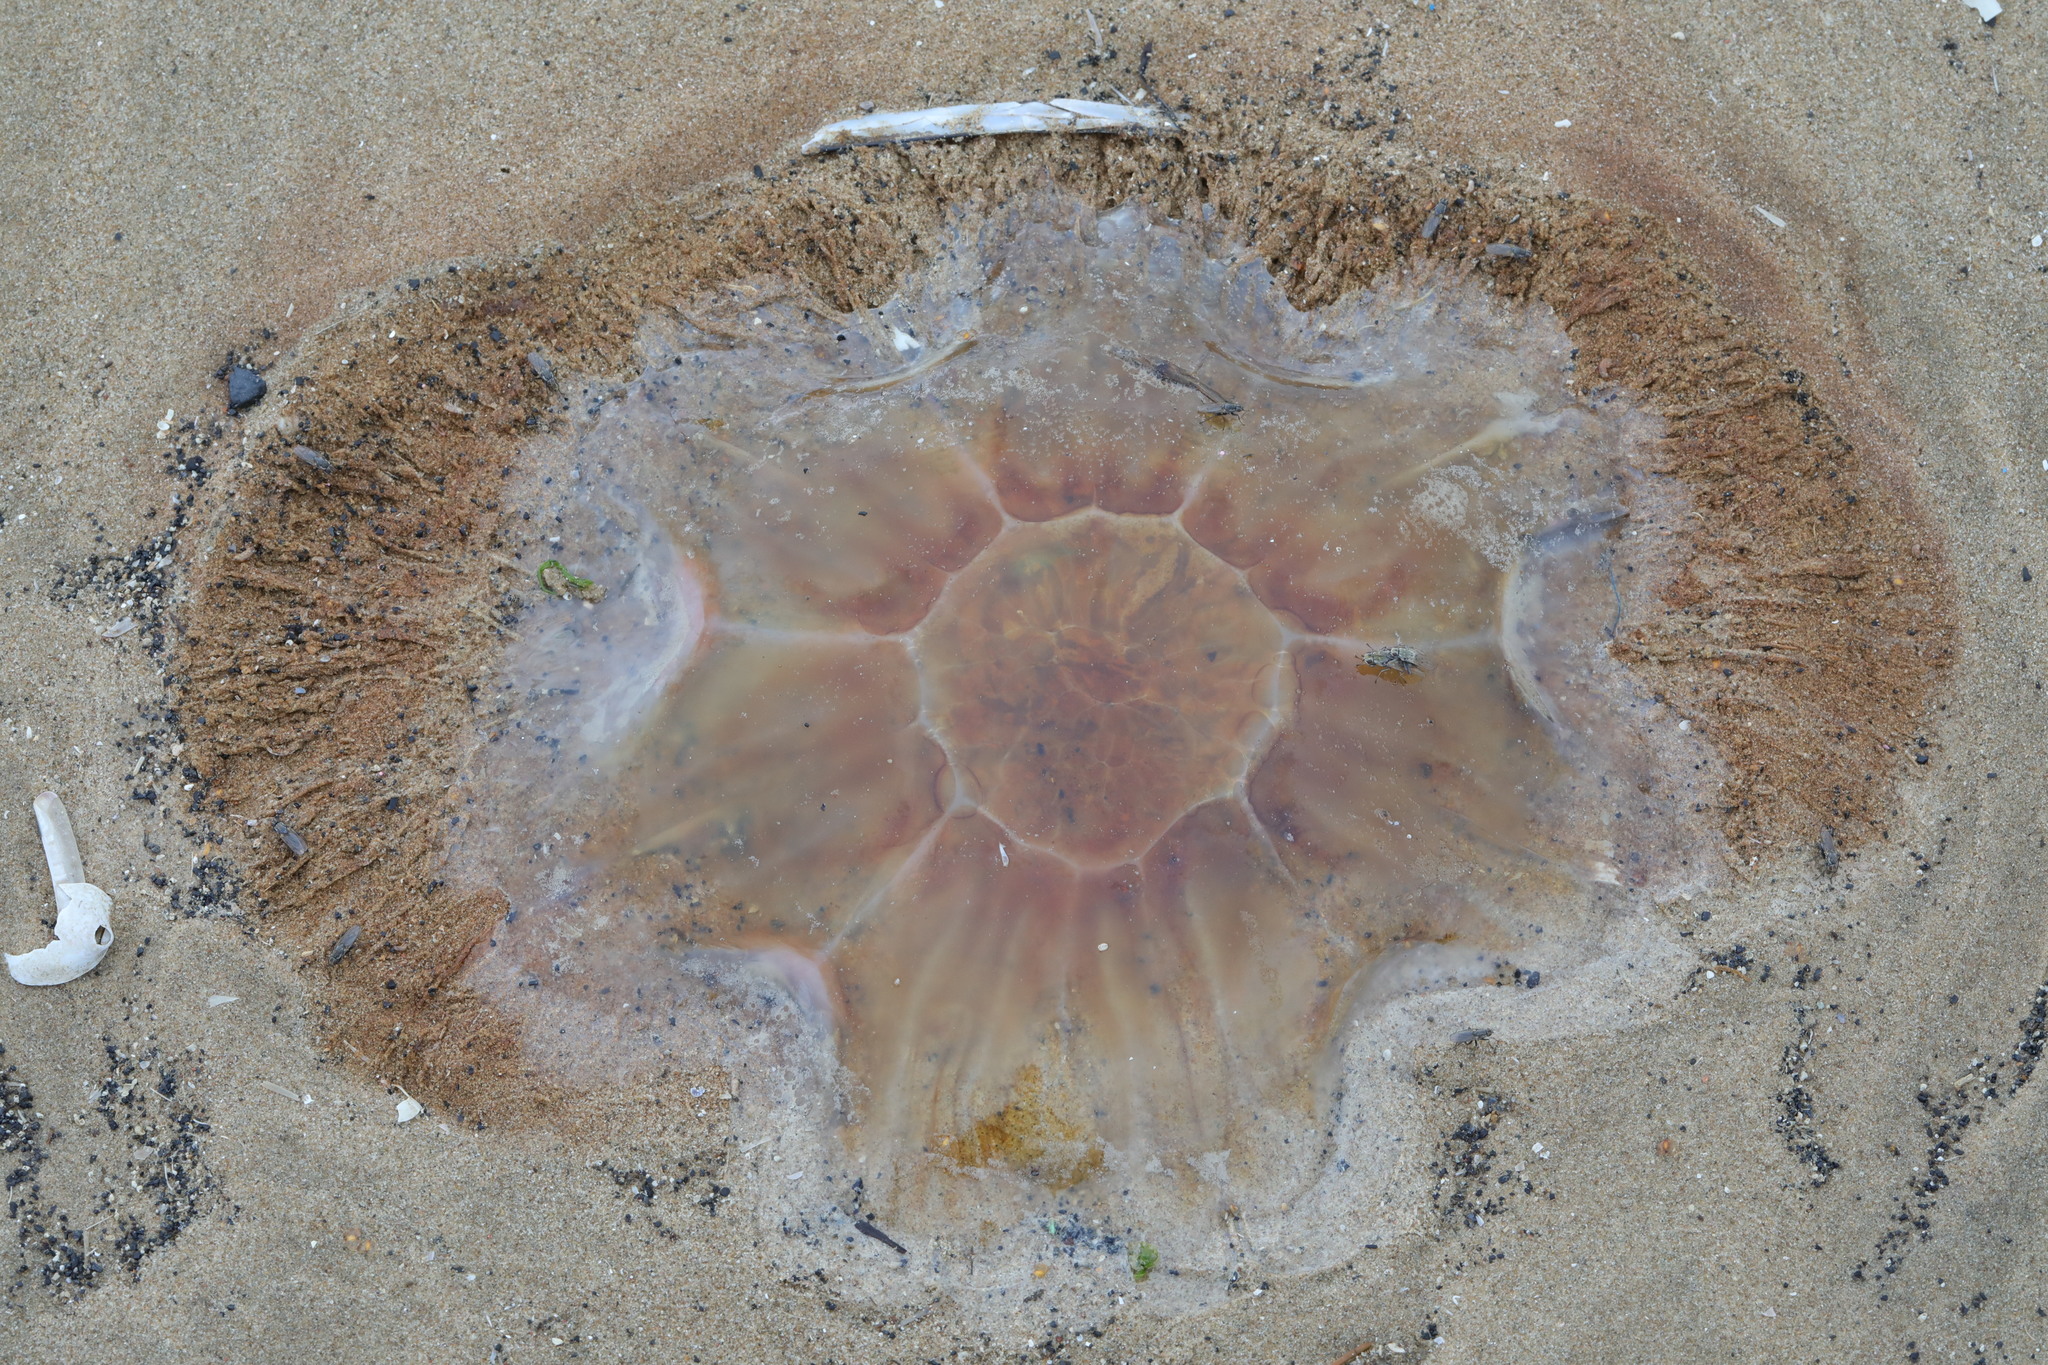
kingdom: Animalia
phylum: Cnidaria
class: Scyphozoa
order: Semaeostomeae
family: Cyaneidae
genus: Cyanea
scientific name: Cyanea capillata
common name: Lion's mane jellyfish
